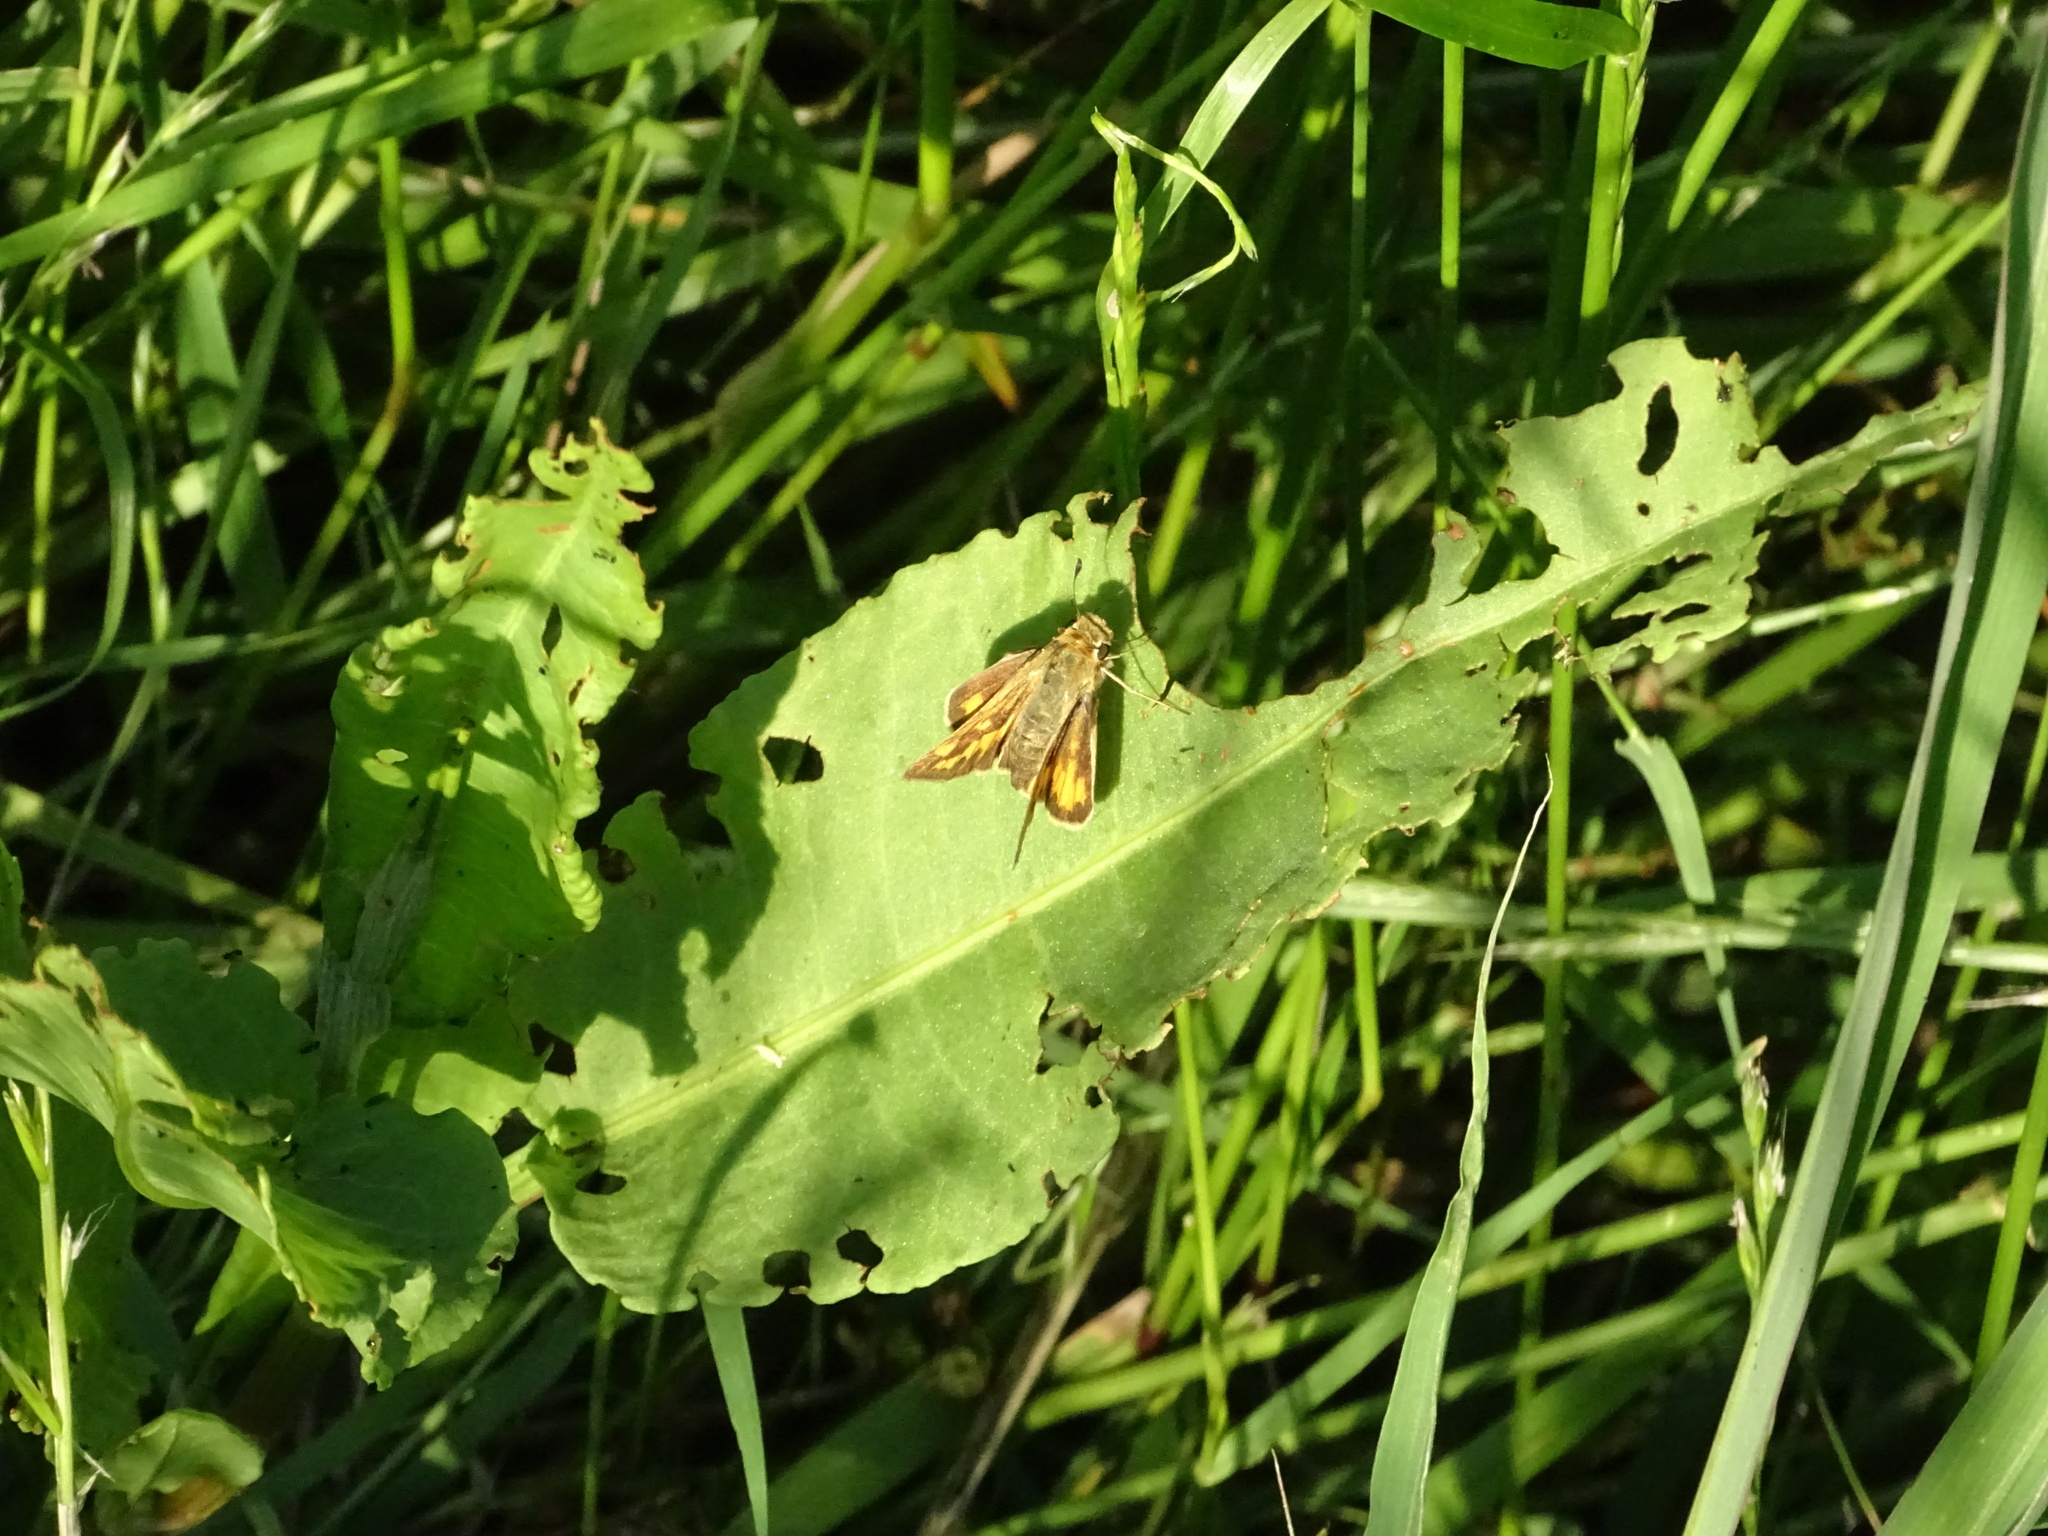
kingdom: Animalia
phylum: Arthropoda
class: Insecta
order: Lepidoptera
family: Hesperiidae
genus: Hylephila
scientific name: Hylephila phyleus
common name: Fiery skipper
